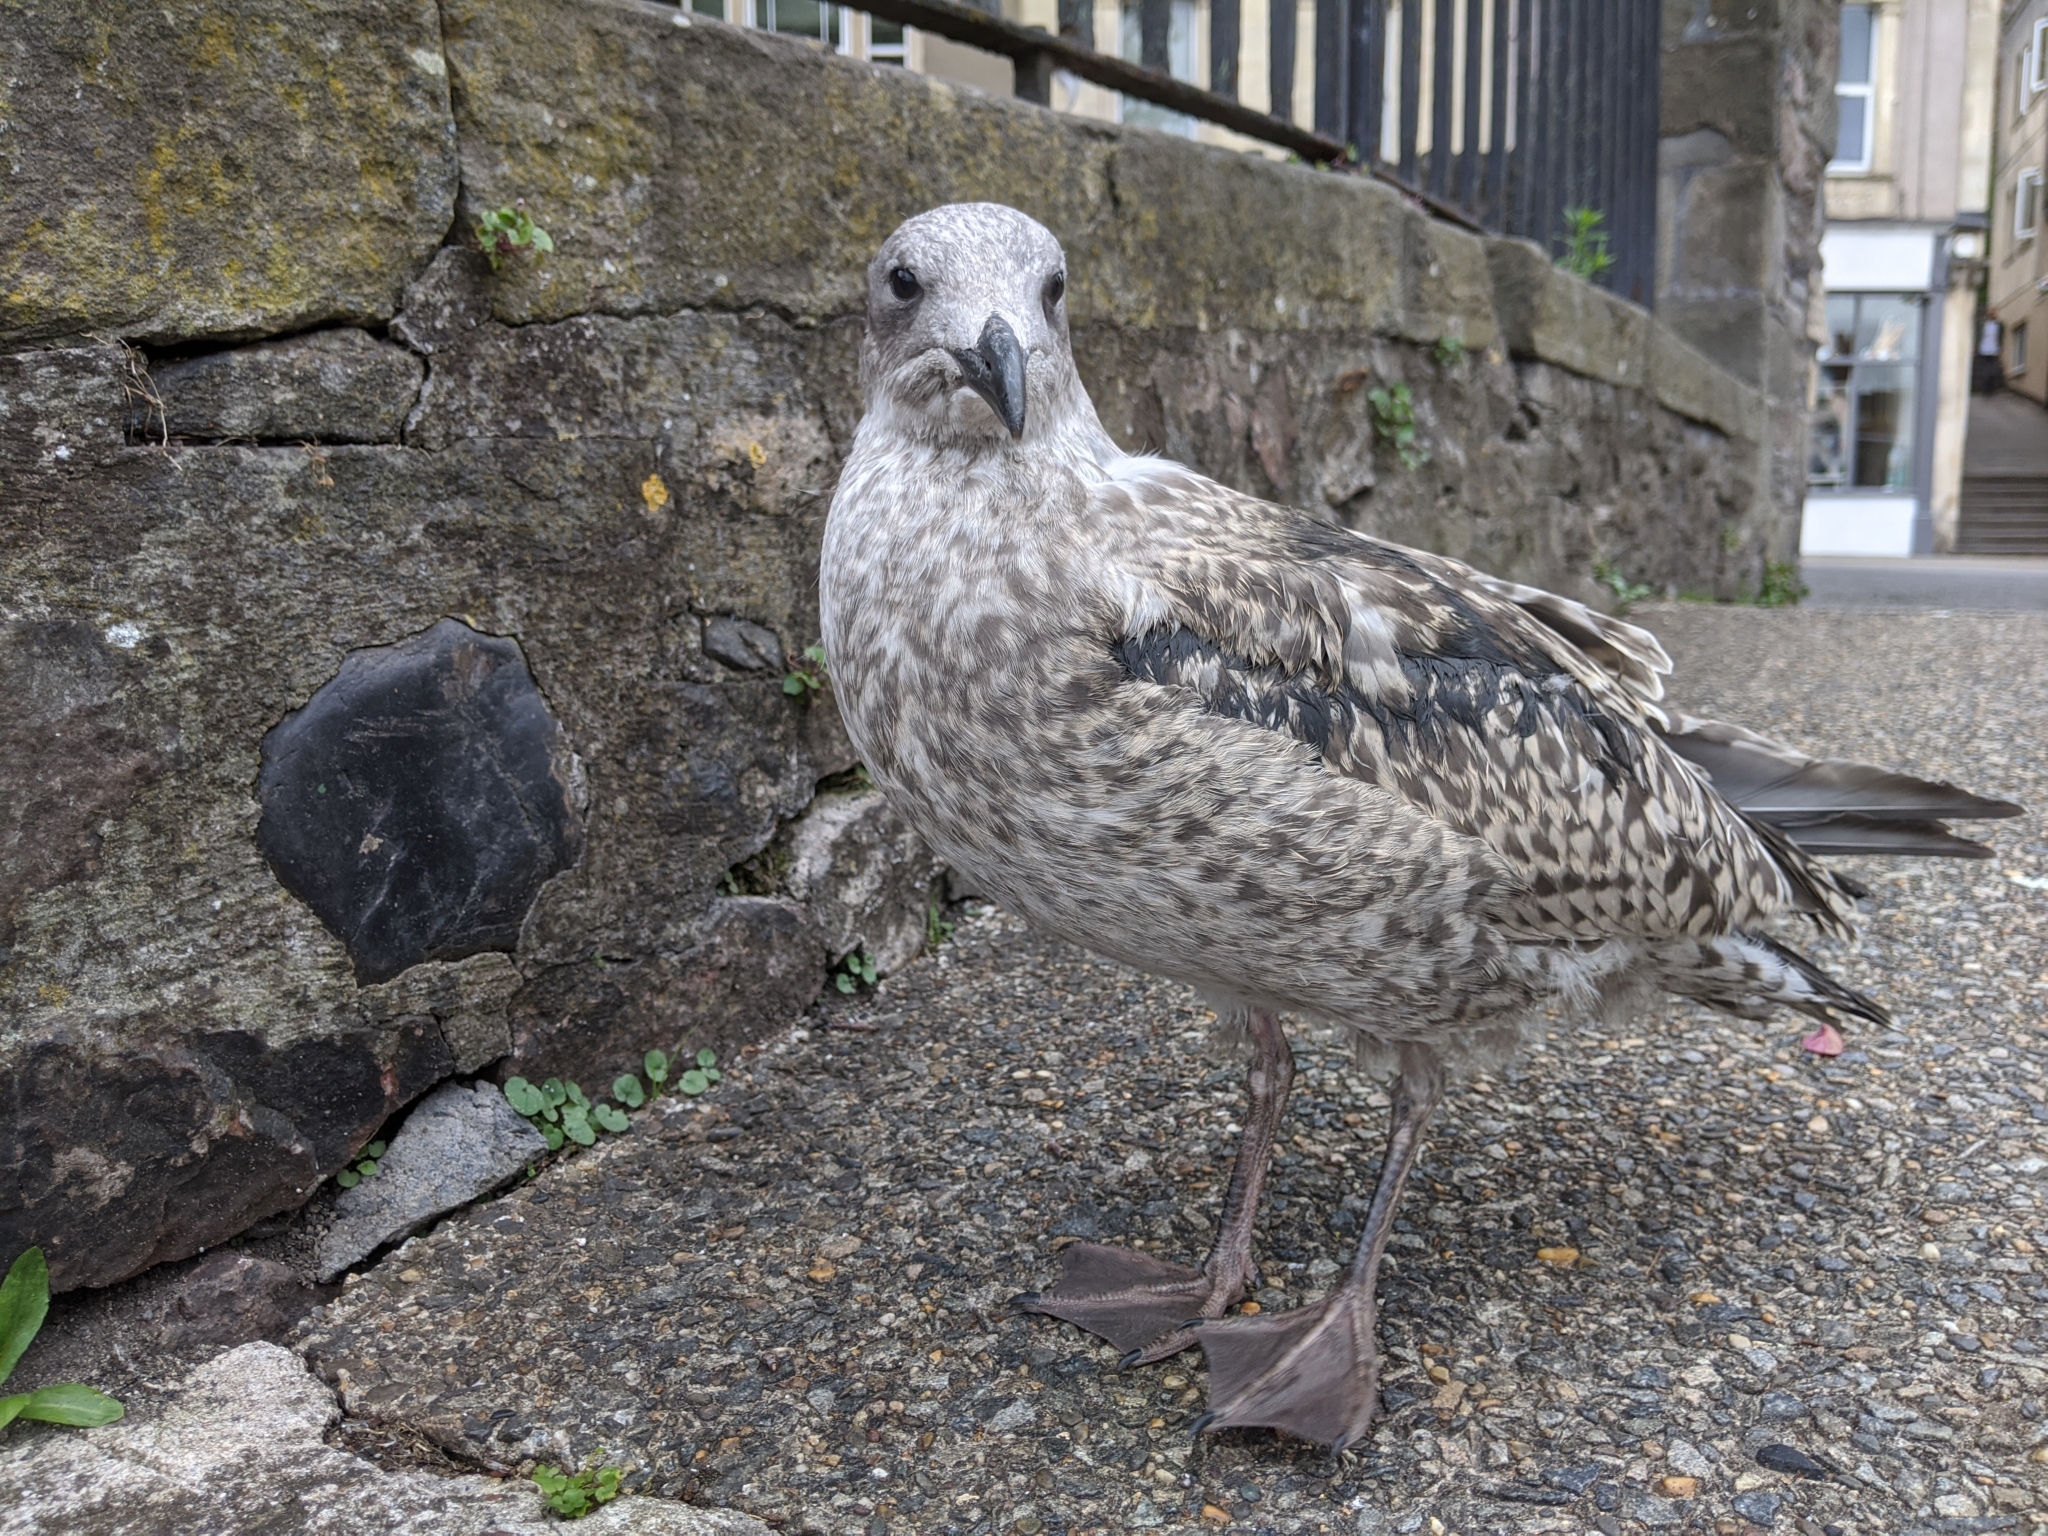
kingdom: Animalia
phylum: Chordata
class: Aves
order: Charadriiformes
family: Laridae
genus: Larus
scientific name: Larus argentatus
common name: Herring gull
